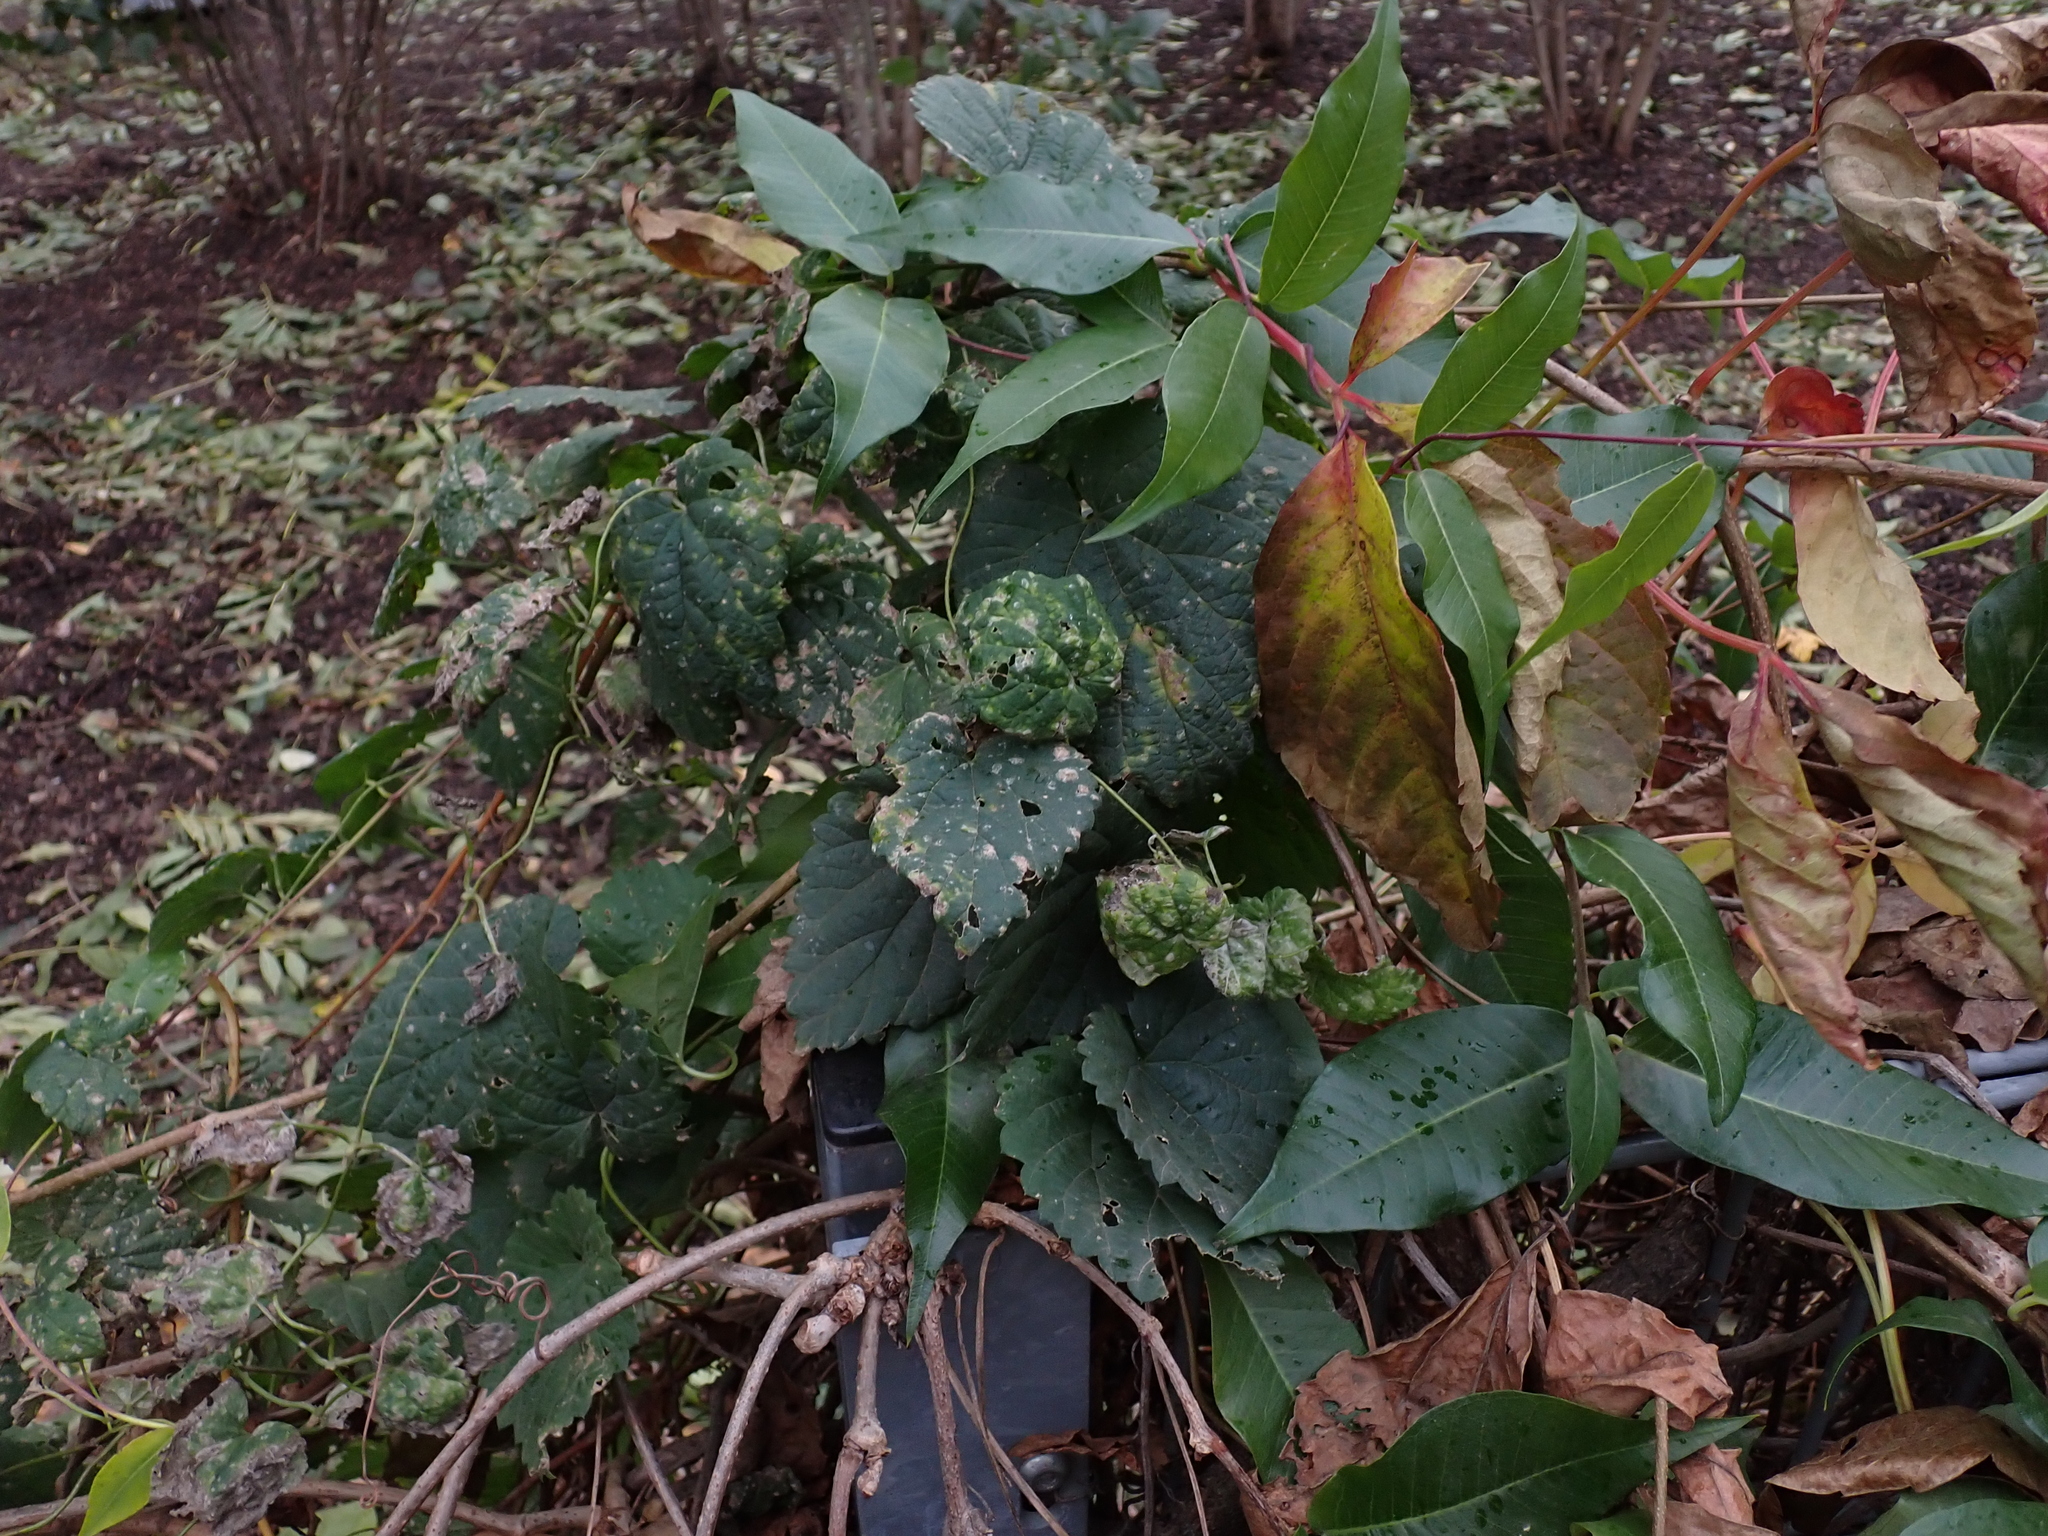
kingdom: Plantae
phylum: Tracheophyta
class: Magnoliopsida
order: Rosales
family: Cannabaceae
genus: Humulus
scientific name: Humulus lupulus
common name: Hop
